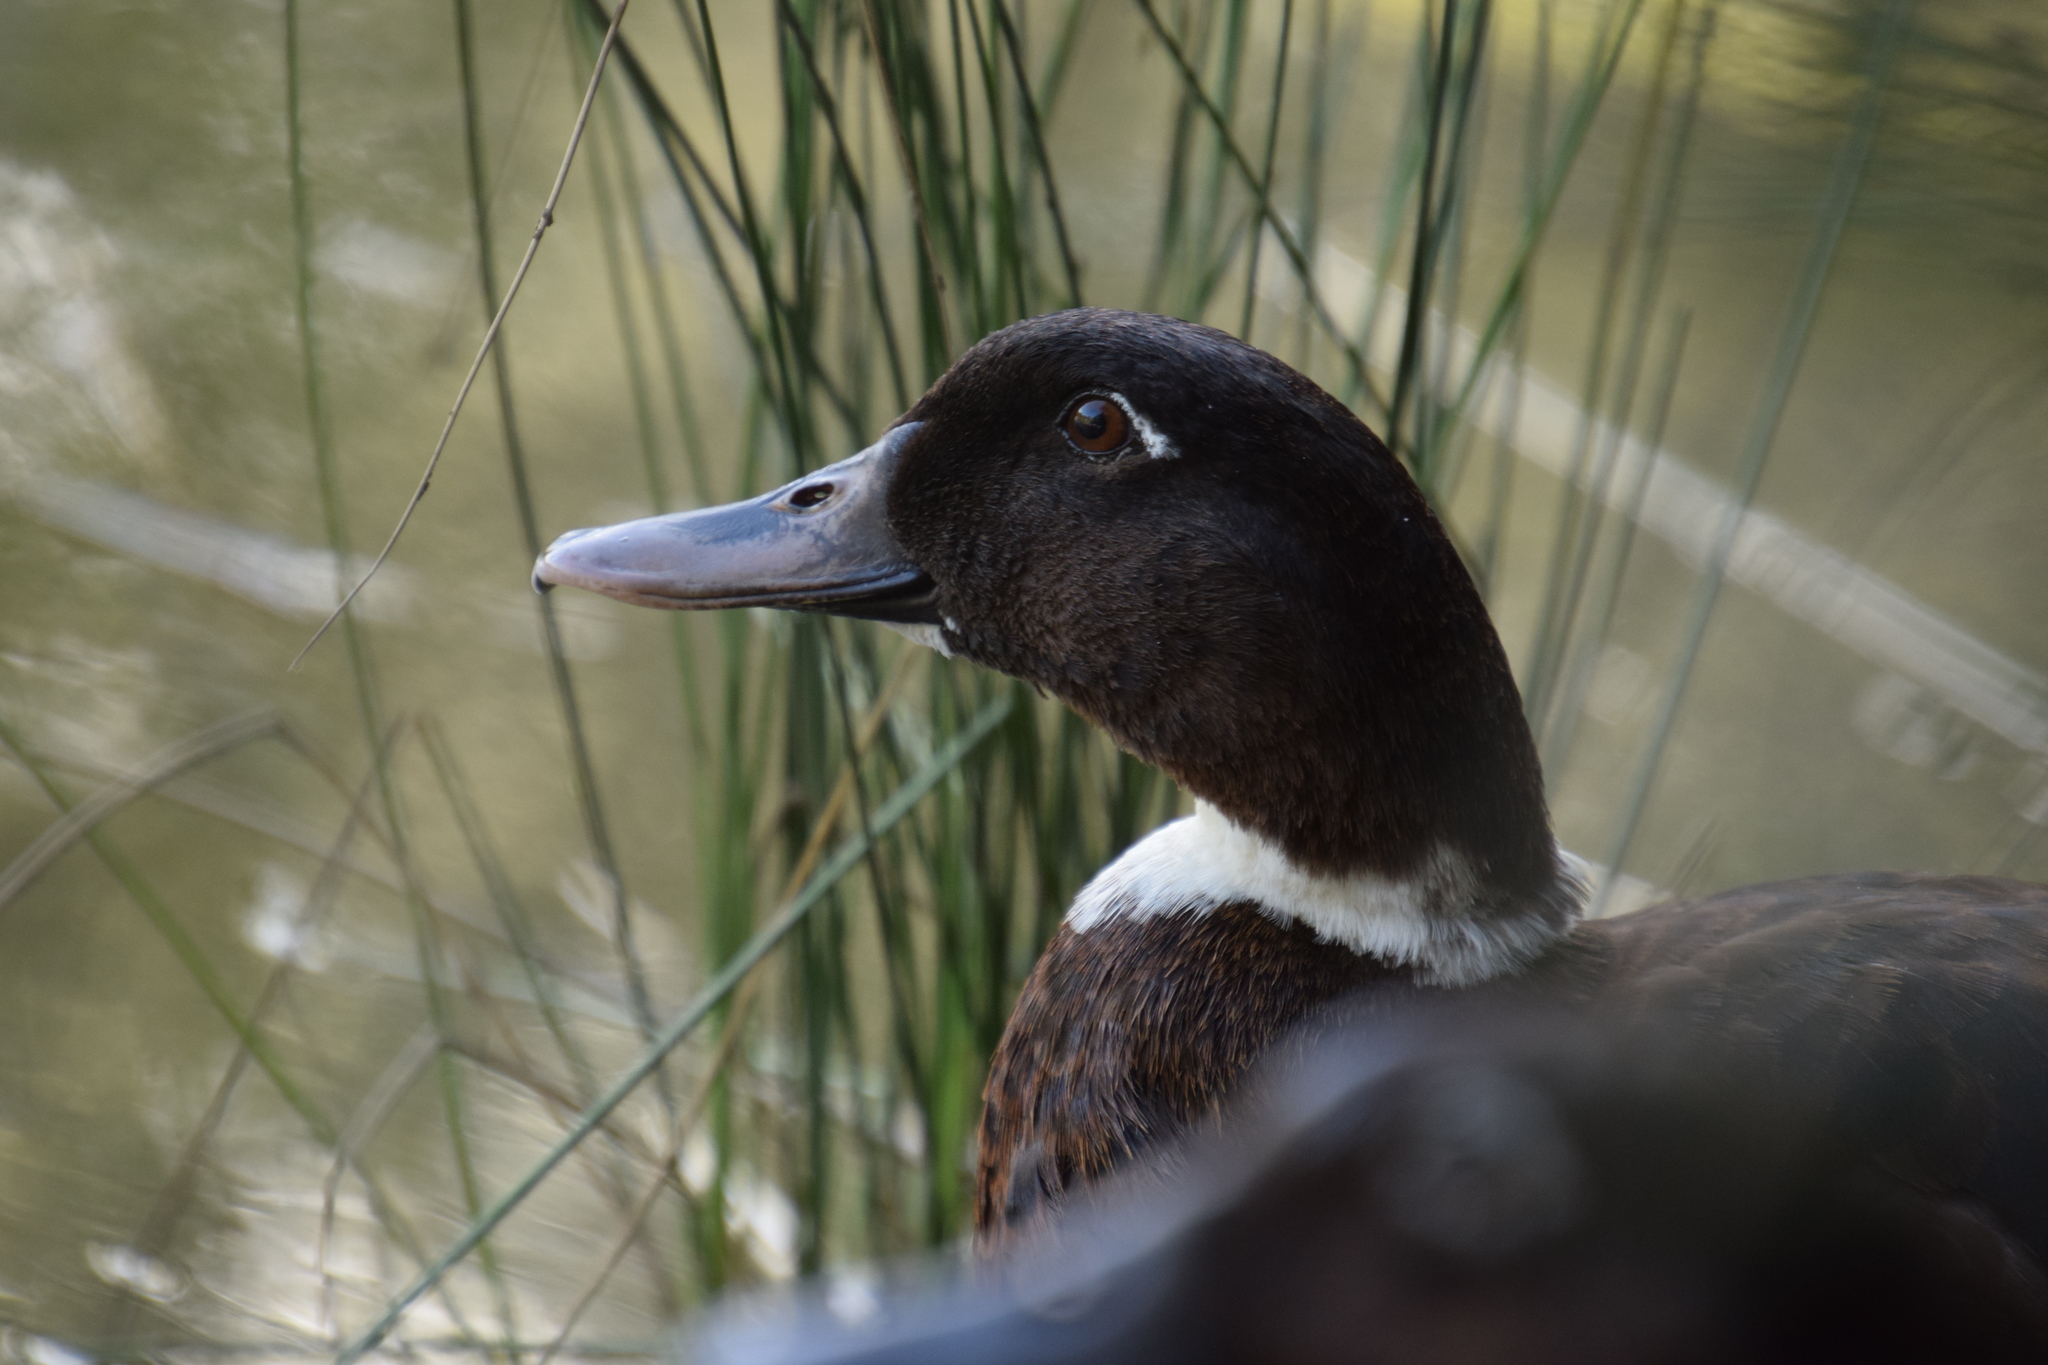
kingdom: Animalia
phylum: Chordata
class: Aves
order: Anseriformes
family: Anatidae
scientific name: Anatidae
